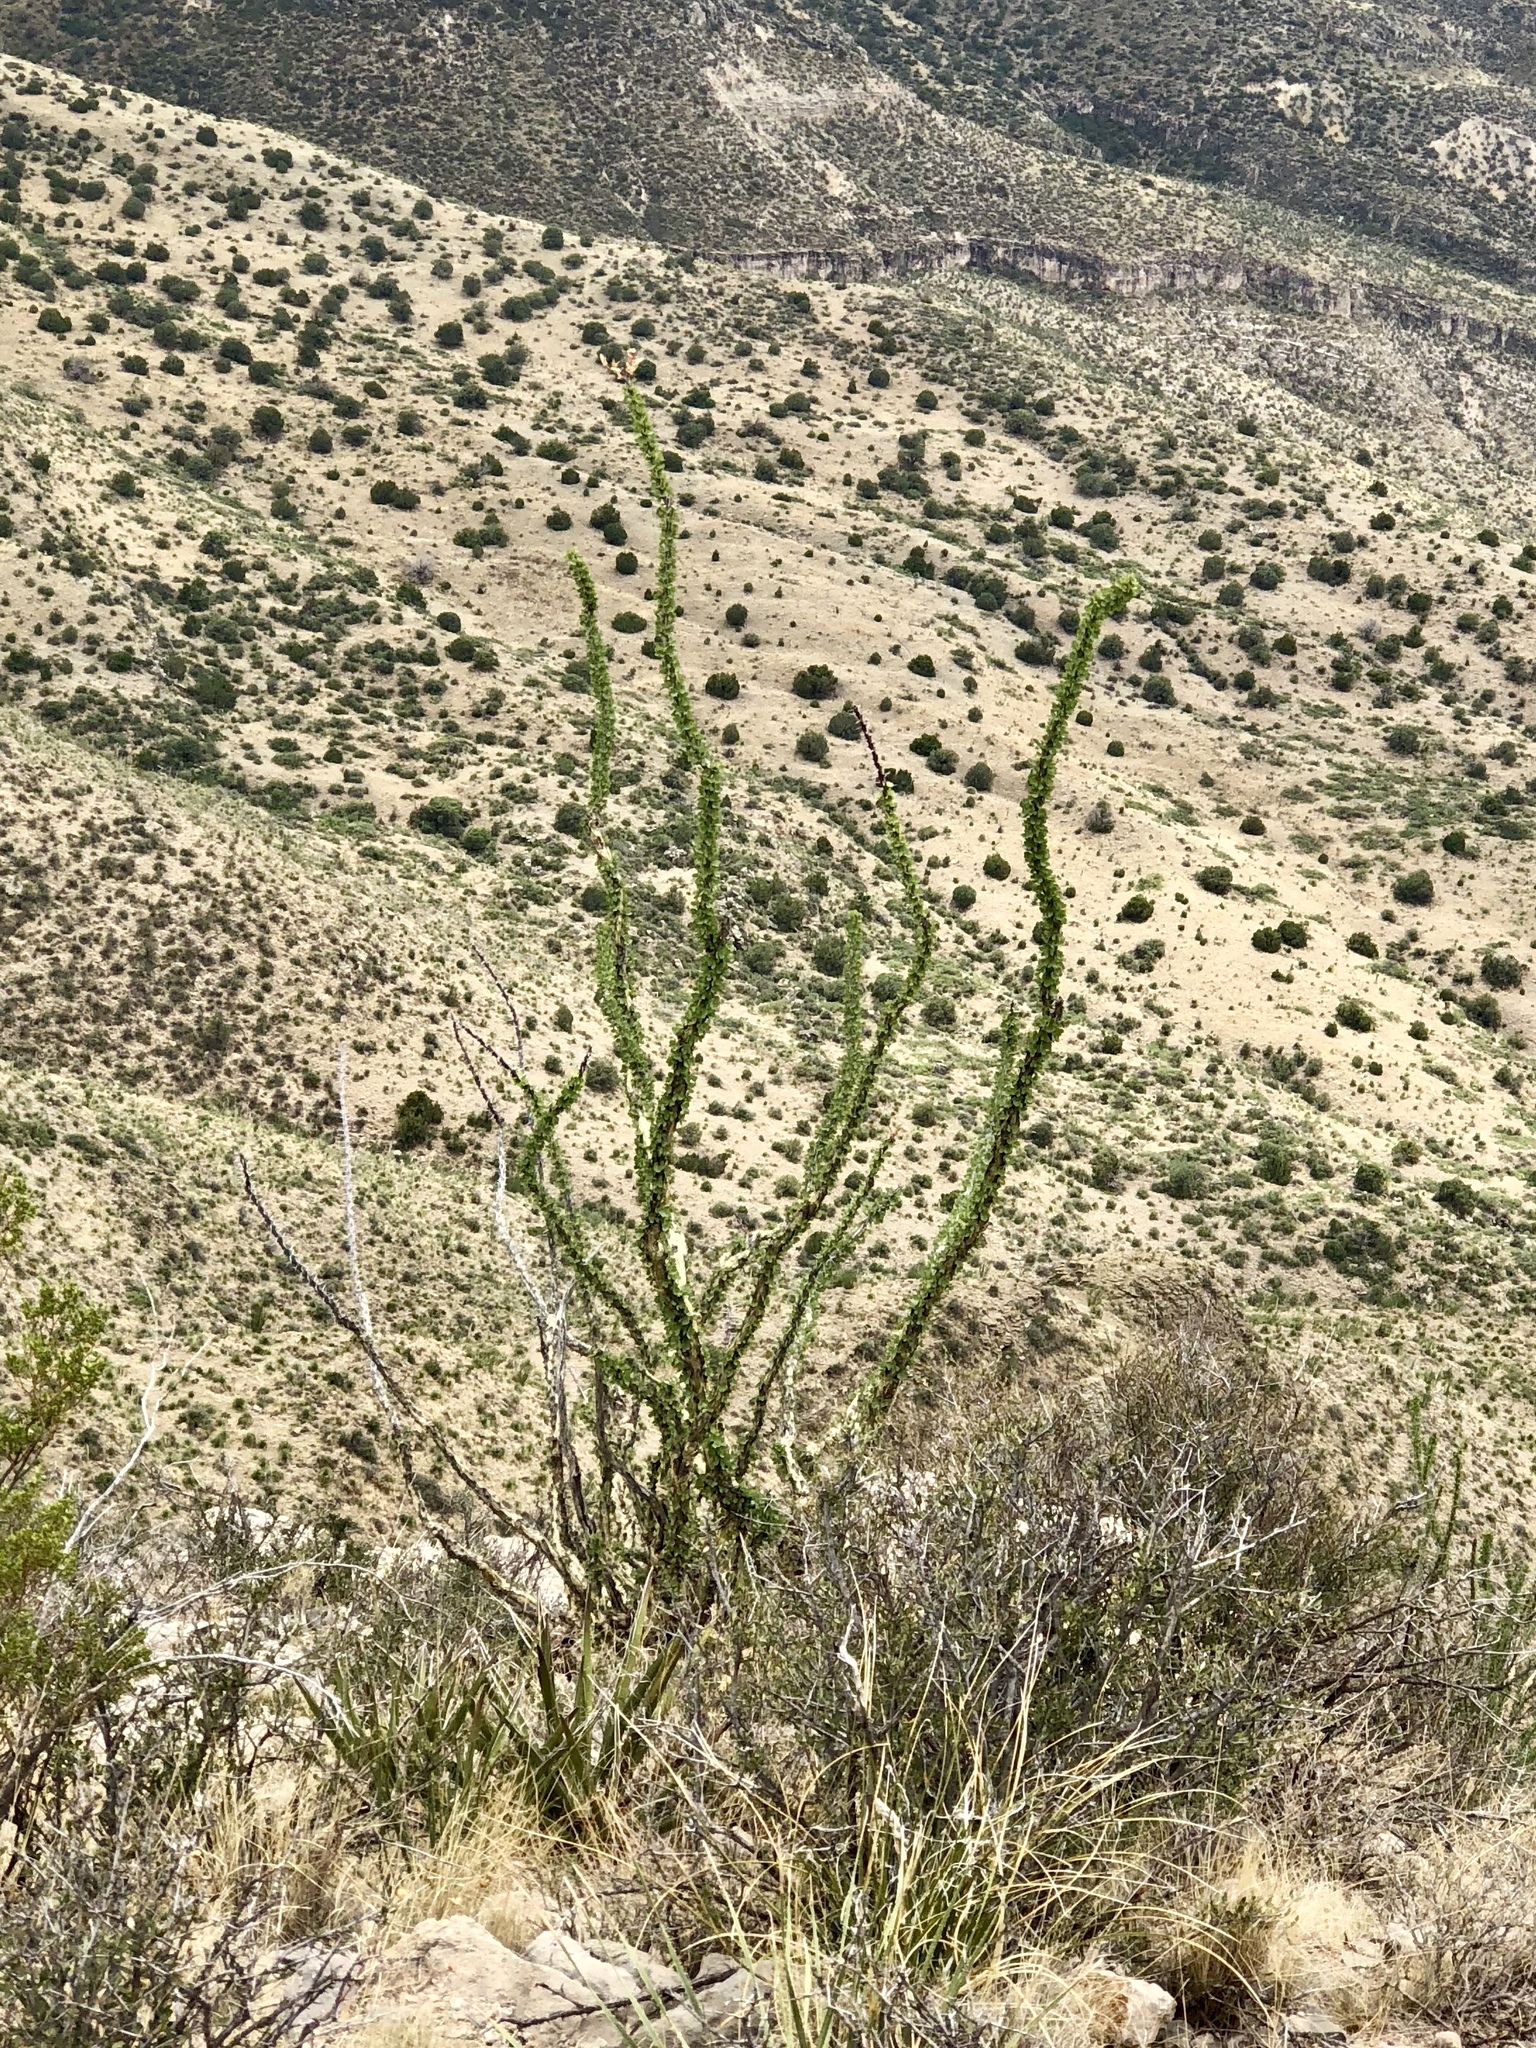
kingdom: Plantae
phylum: Tracheophyta
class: Magnoliopsida
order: Ericales
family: Fouquieriaceae
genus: Fouquieria
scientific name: Fouquieria splendens
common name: Vine-cactus
